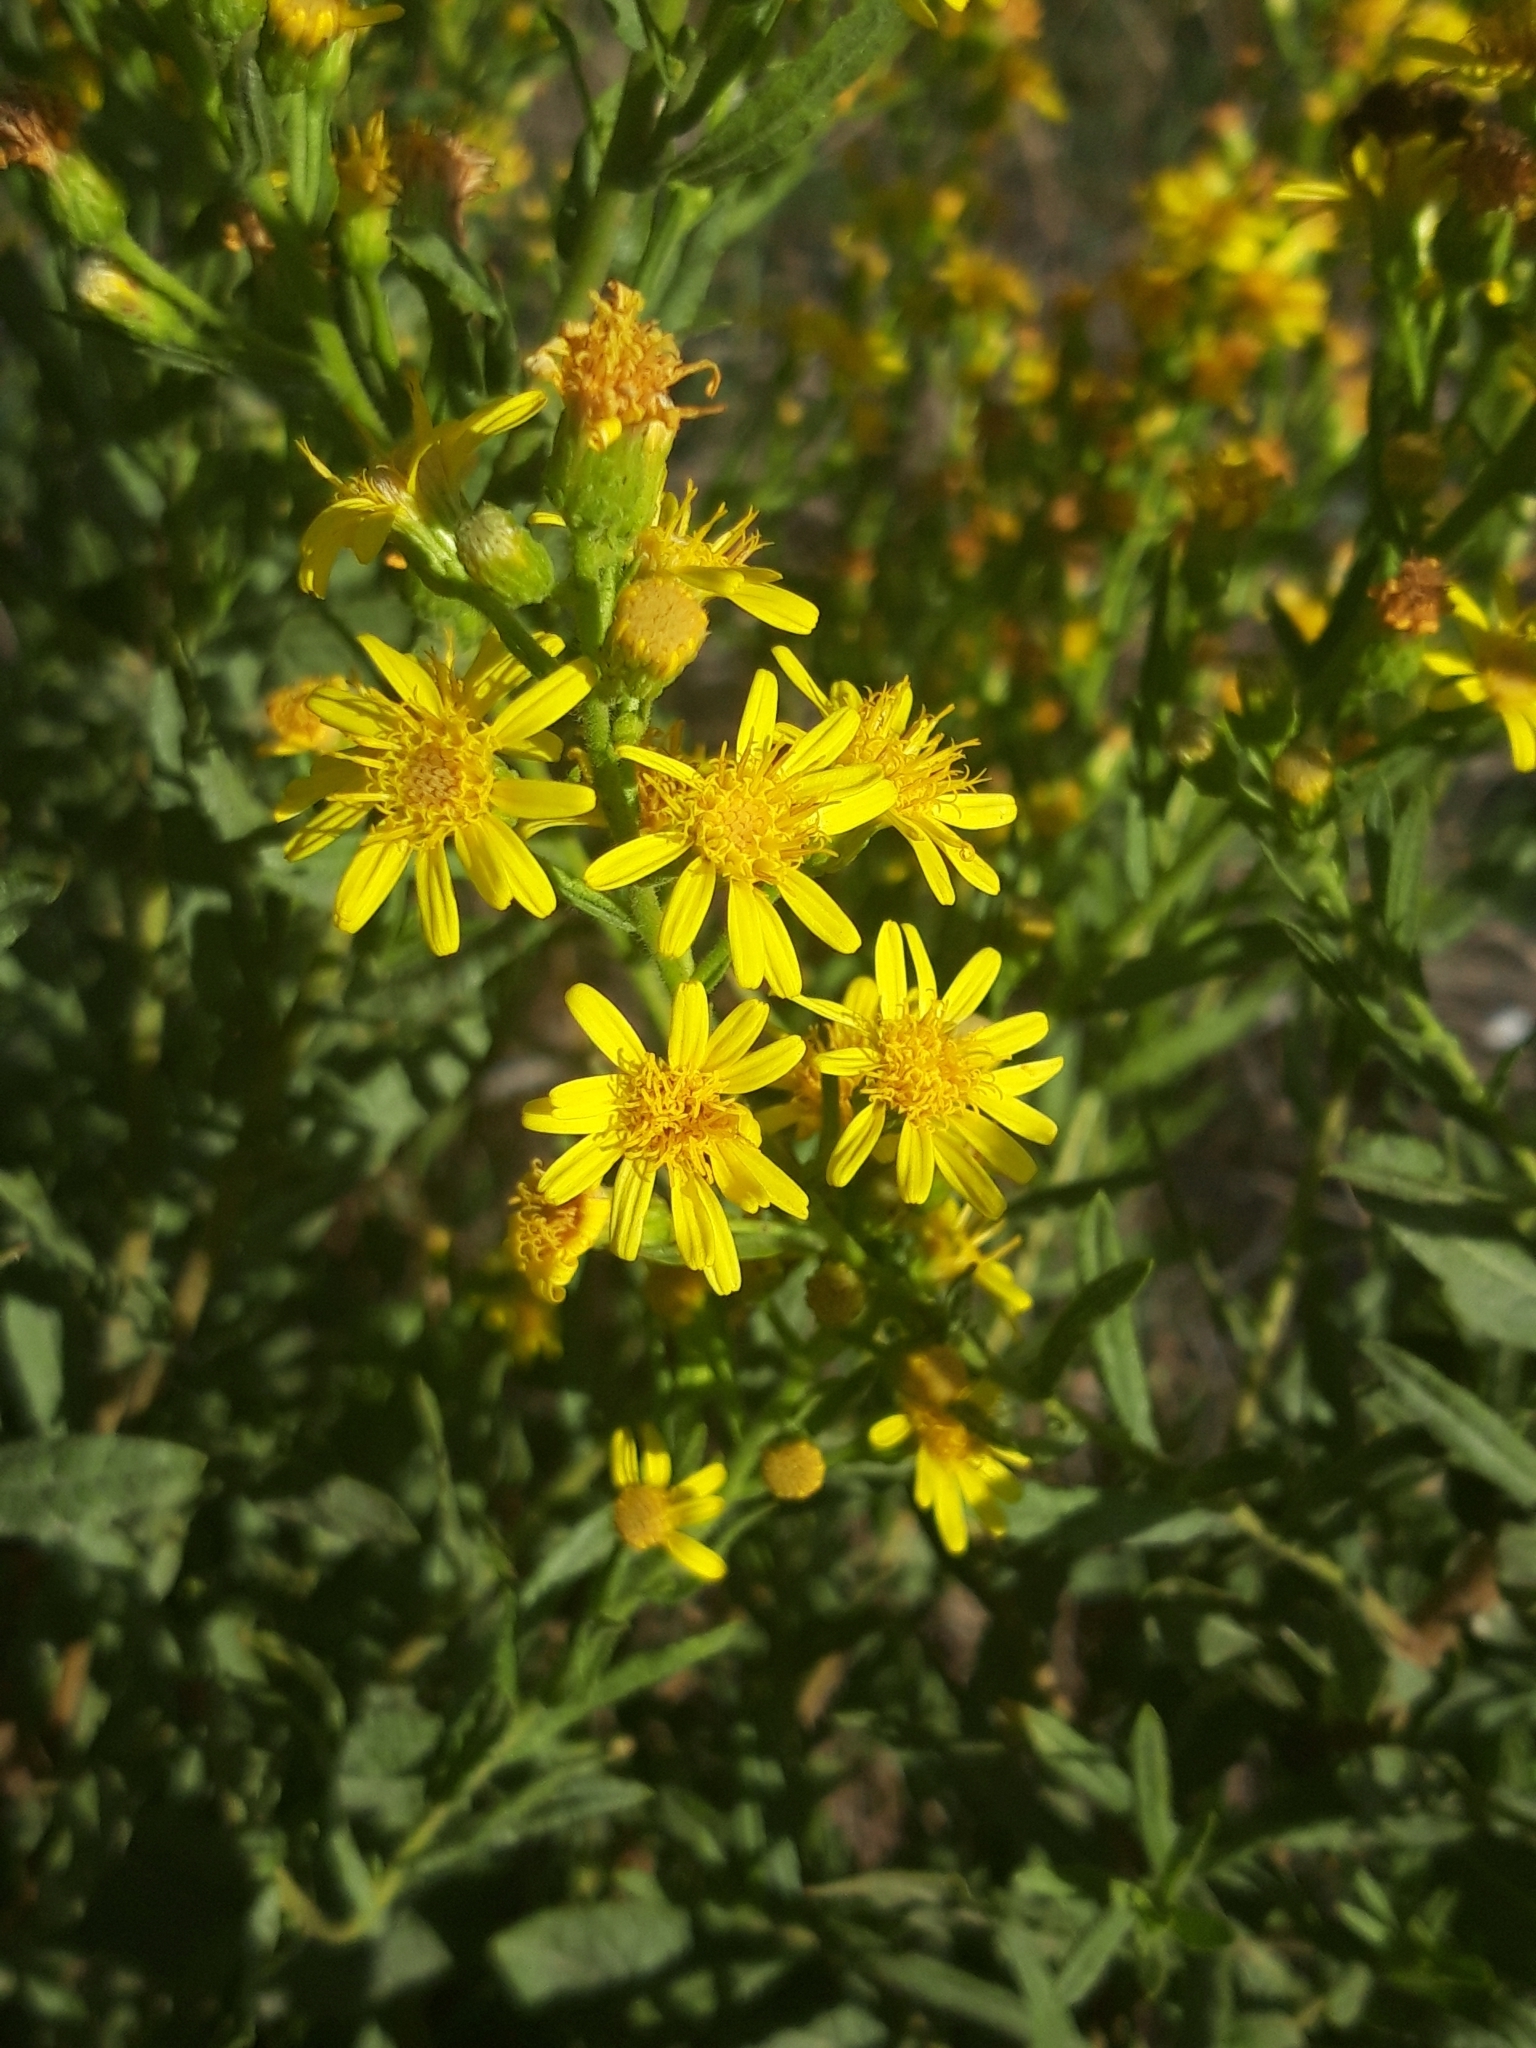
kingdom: Plantae
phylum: Tracheophyta
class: Magnoliopsida
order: Asterales
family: Asteraceae
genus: Dittrichia
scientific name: Dittrichia viscosa
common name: Woody fleabane
